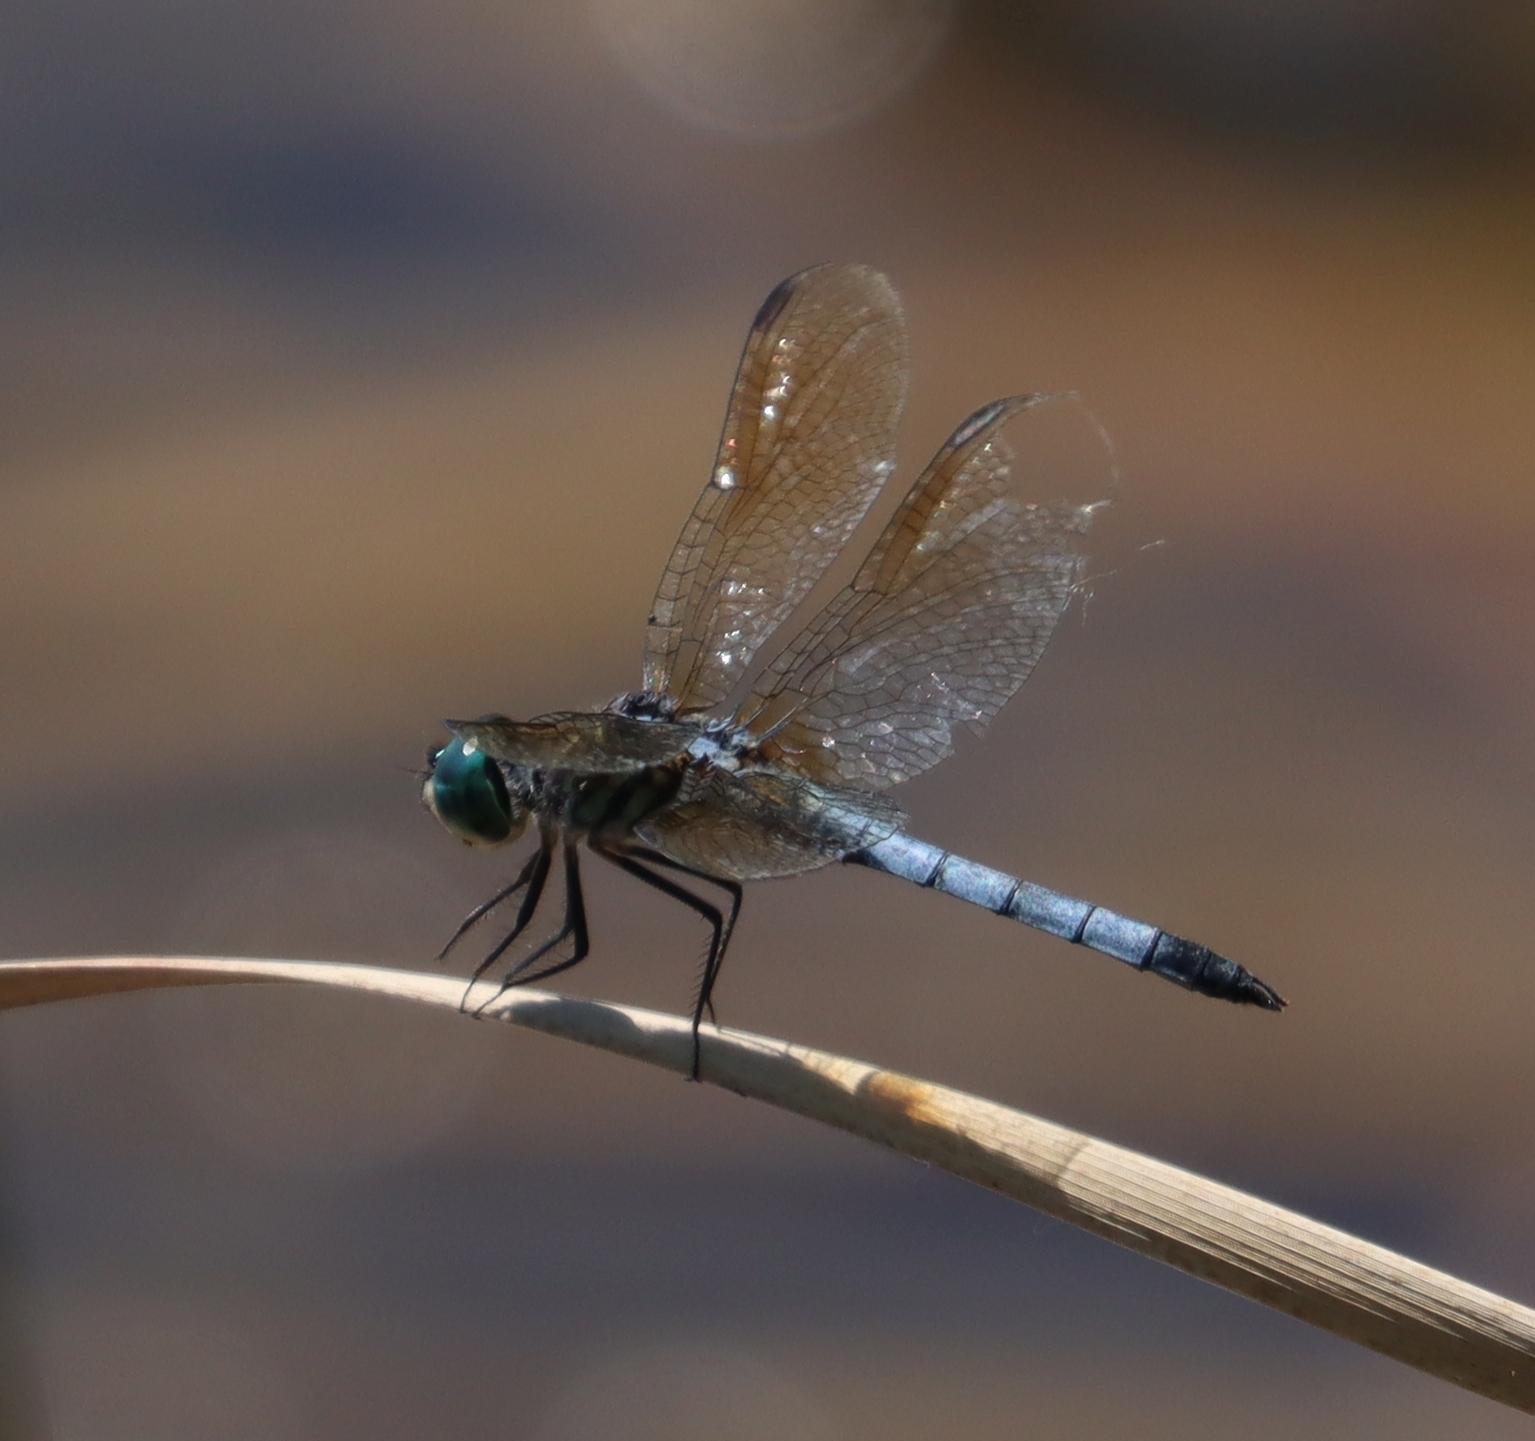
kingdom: Animalia
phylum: Arthropoda
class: Insecta
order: Odonata
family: Libellulidae
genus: Pachydiplax
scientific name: Pachydiplax longipennis
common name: Blue dasher
